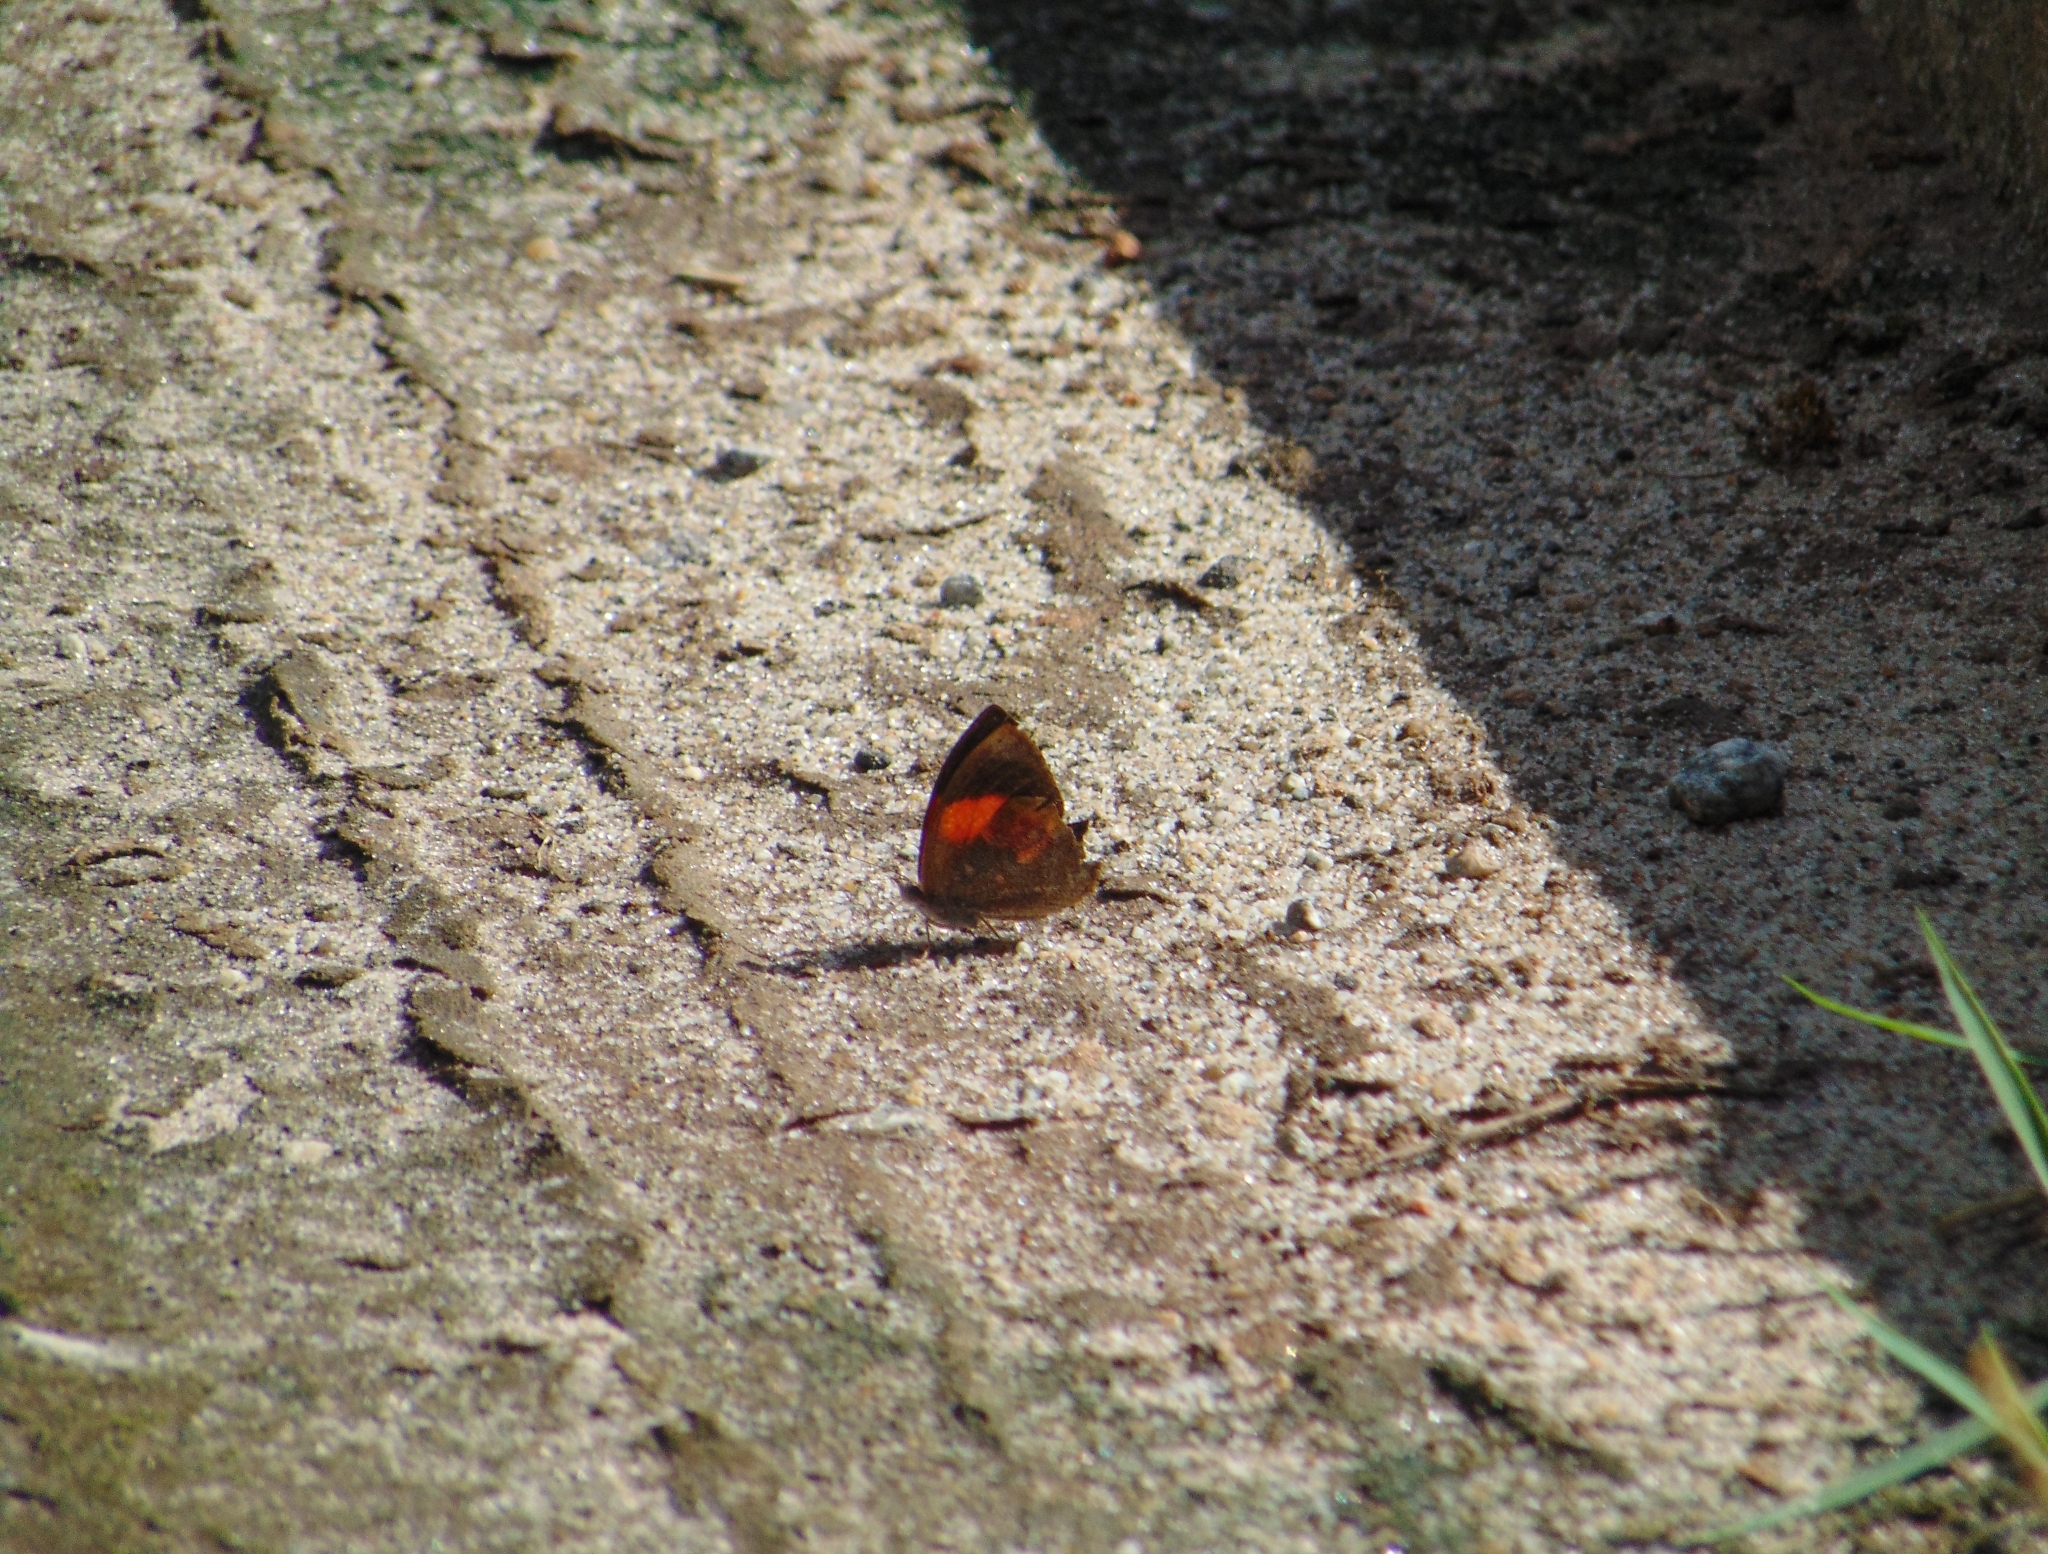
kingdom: Animalia
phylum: Arthropoda
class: Insecta
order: Lepidoptera
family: Nymphalidae
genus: Haematera
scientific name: Haematera pyrame
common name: Blind eighty-eight
